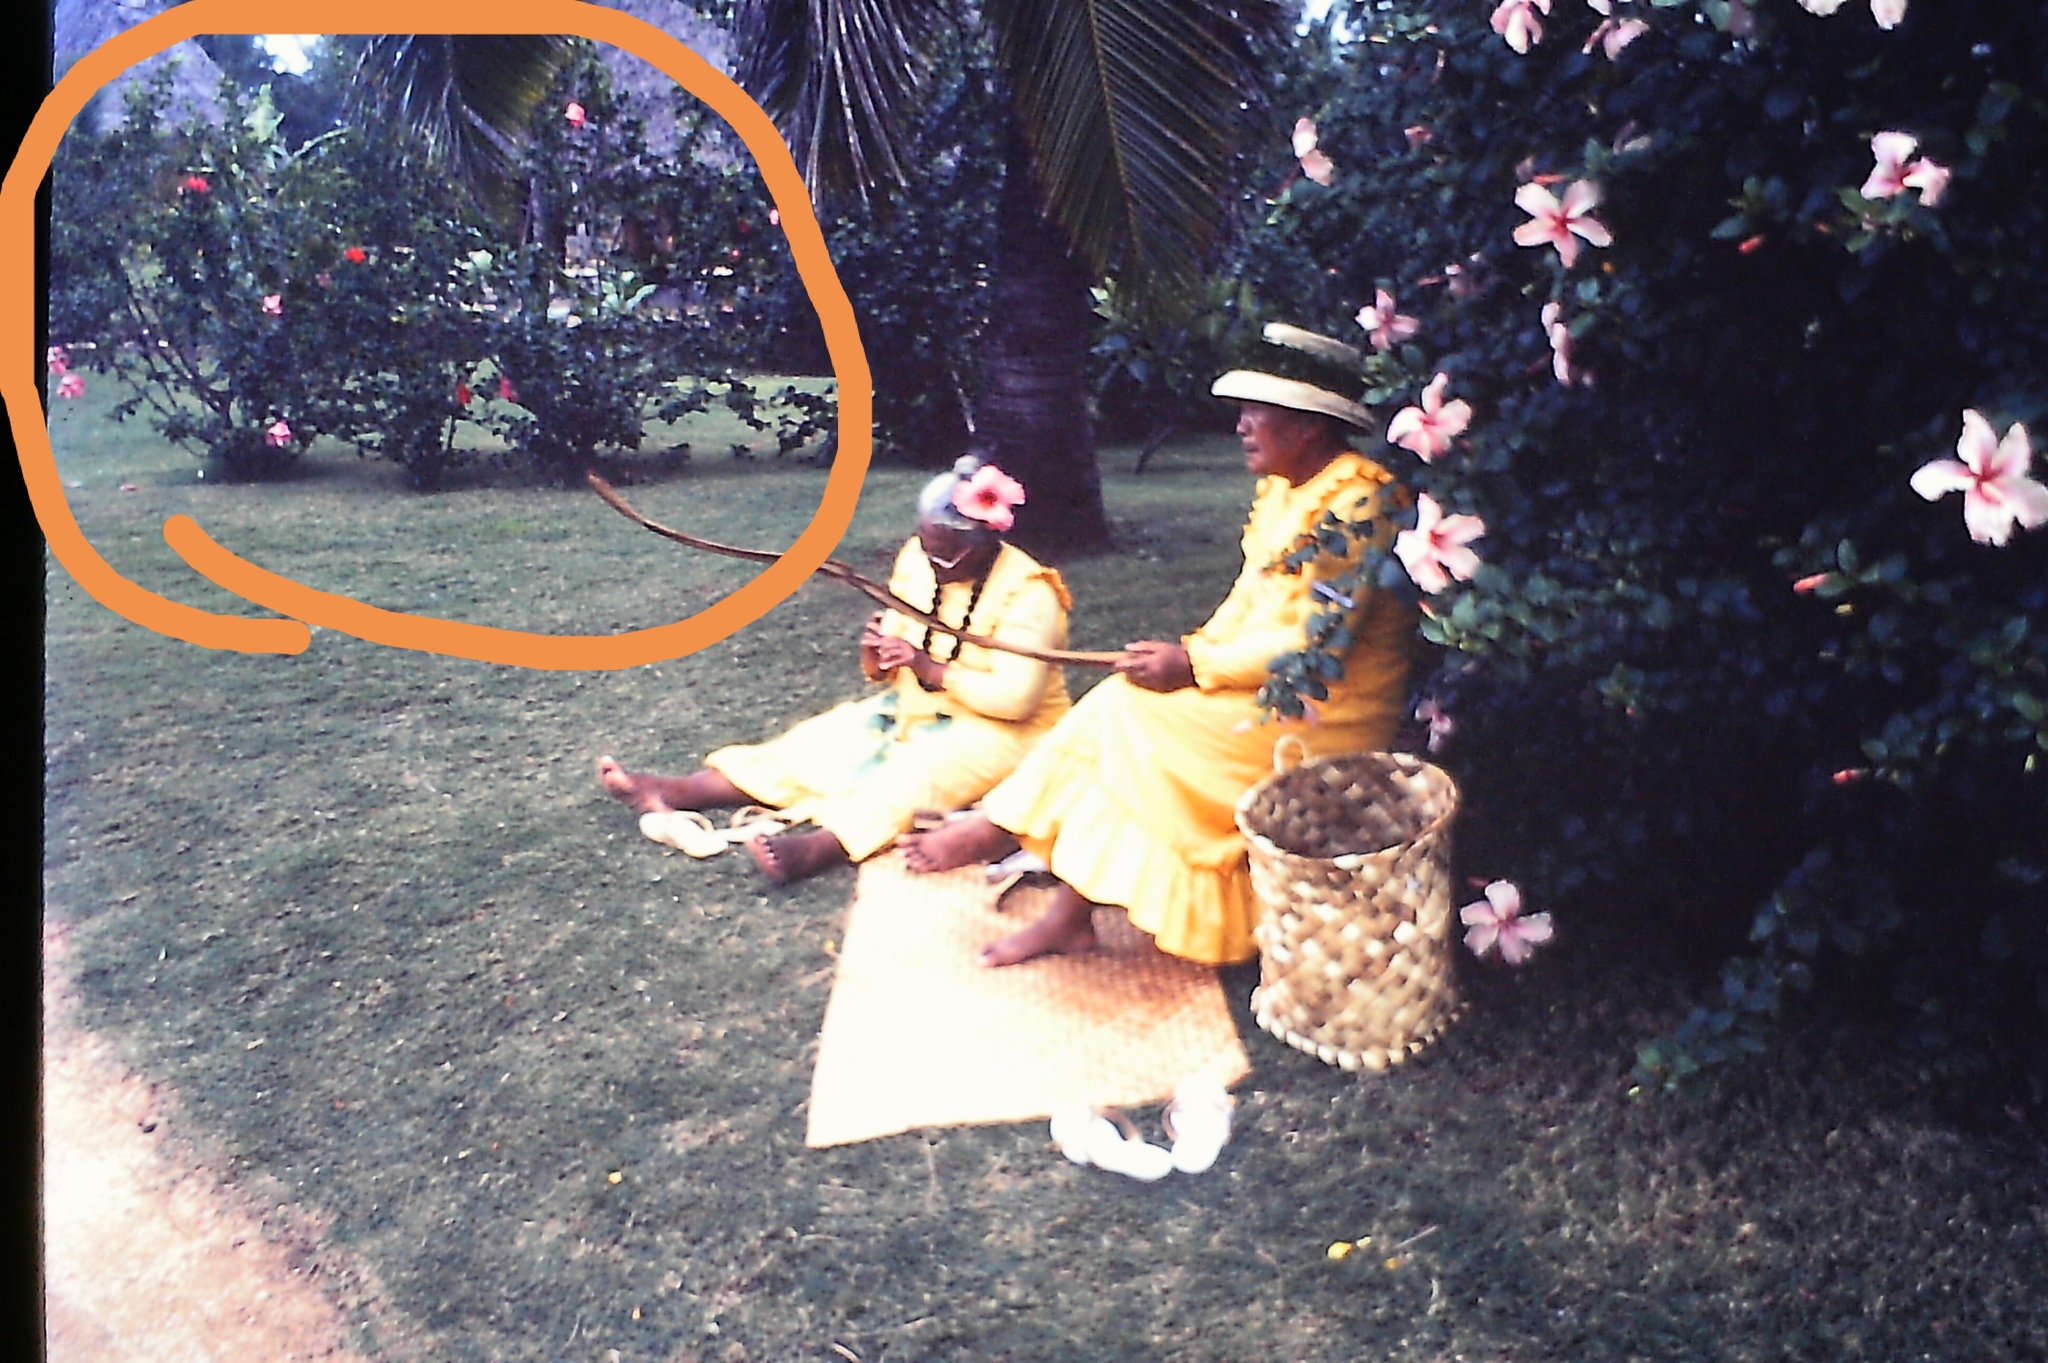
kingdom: Plantae
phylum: Tracheophyta
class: Magnoliopsida
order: Malvales
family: Malvaceae
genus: Hibiscus
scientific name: Hibiscus
